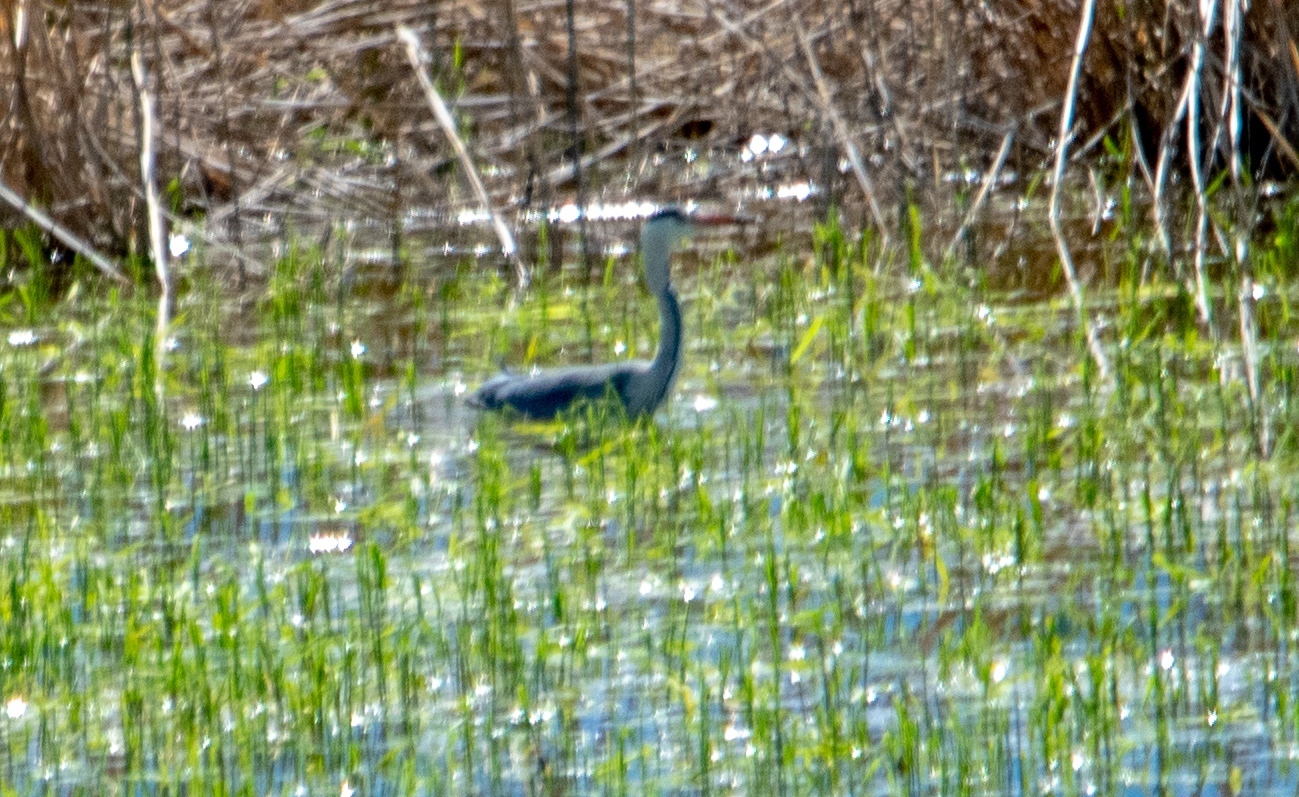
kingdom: Animalia
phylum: Chordata
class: Aves
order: Pelecaniformes
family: Ardeidae
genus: Ardea
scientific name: Ardea cinerea
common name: Grey heron
